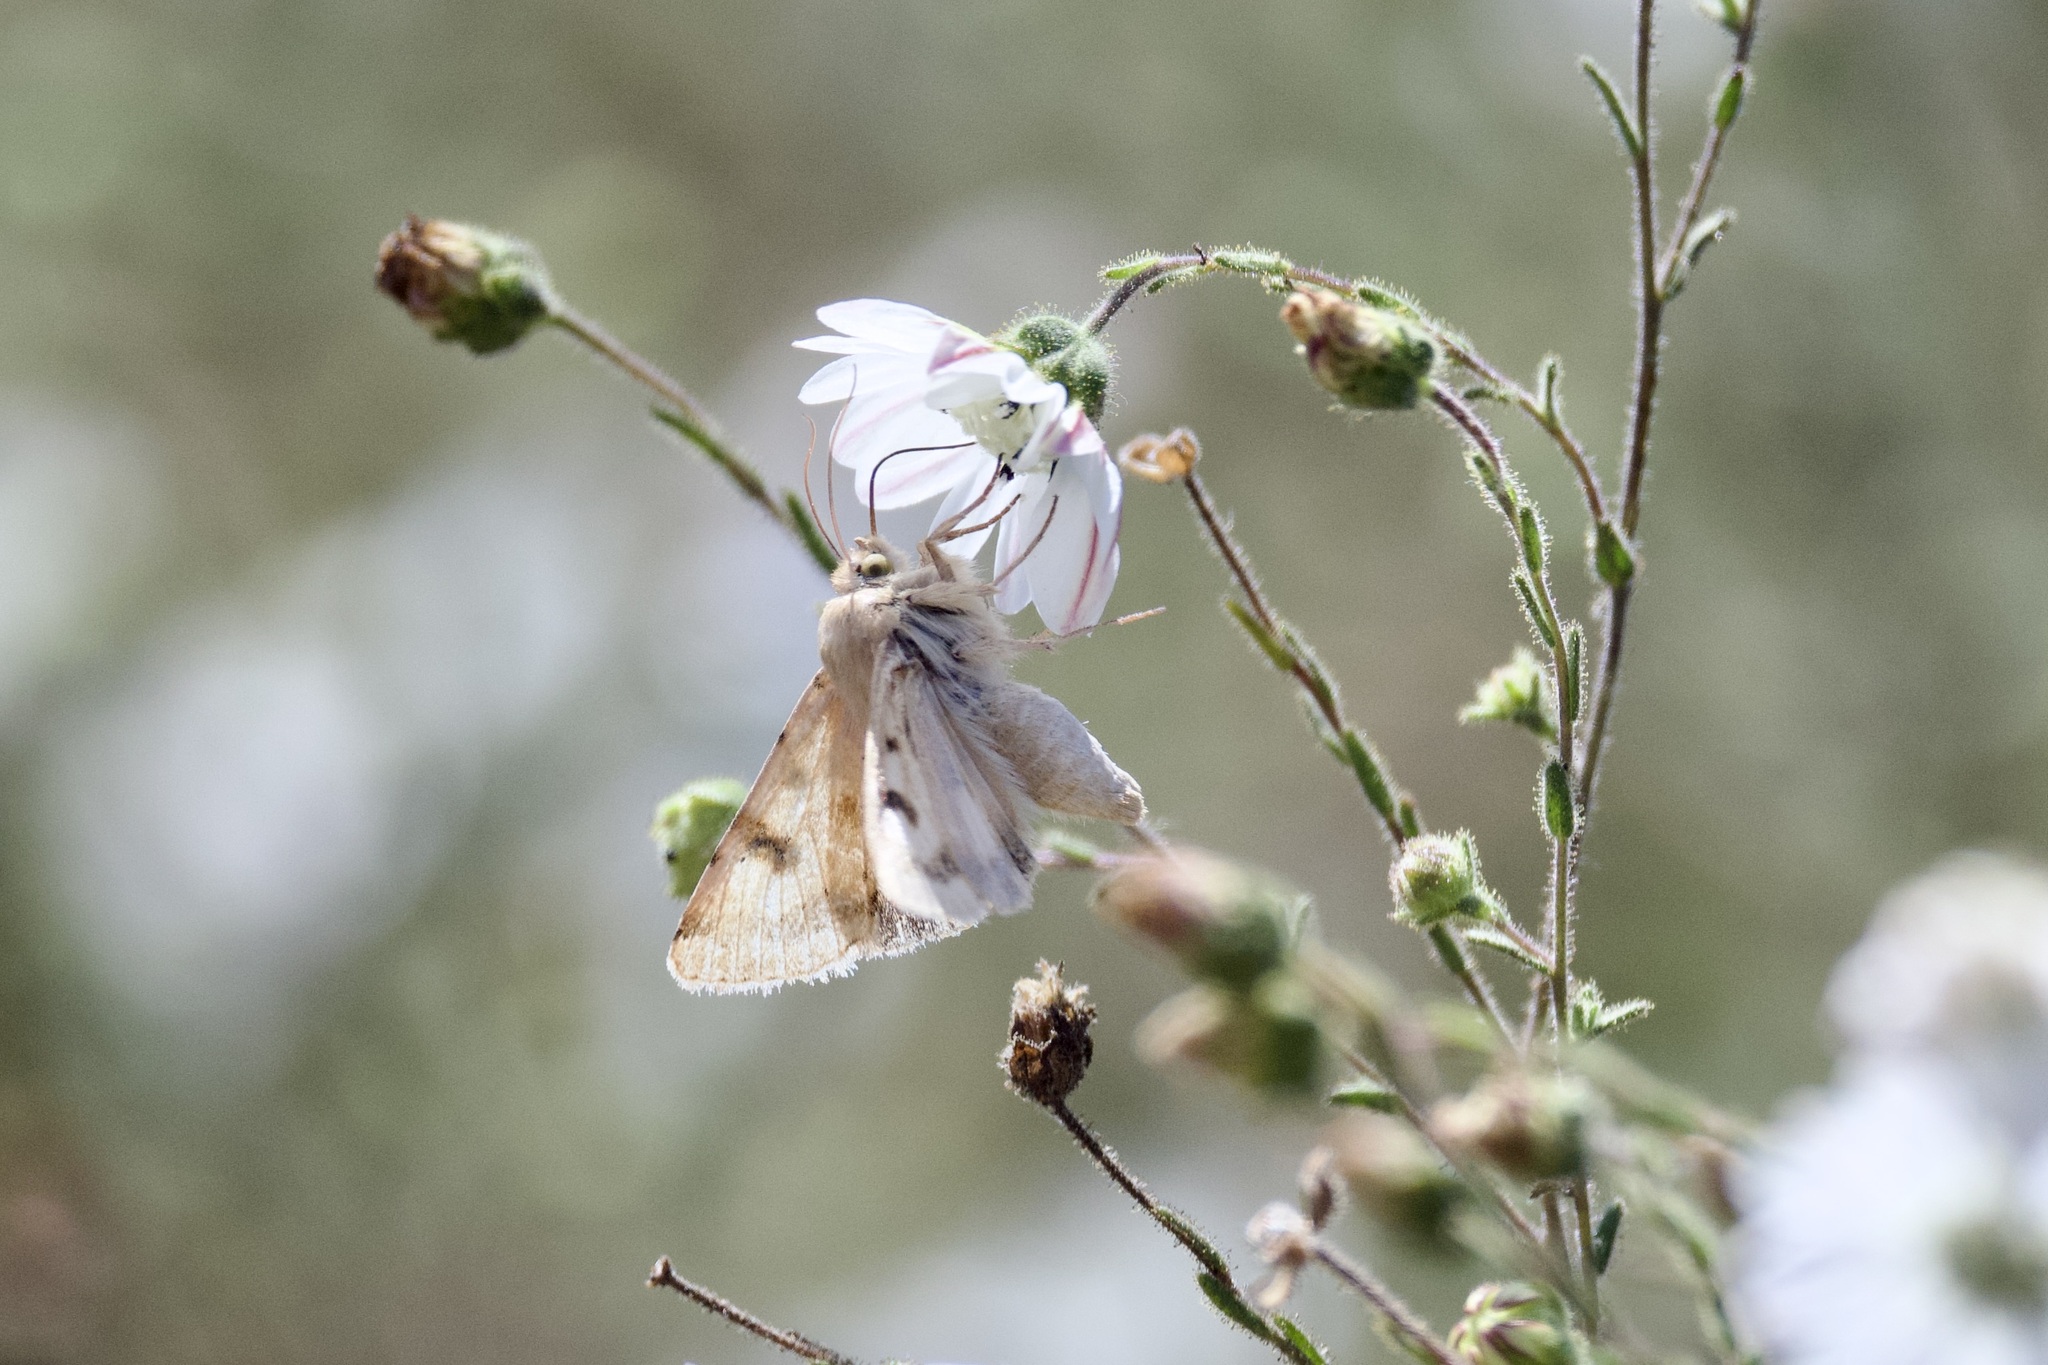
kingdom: Animalia
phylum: Arthropoda
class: Insecta
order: Lepidoptera
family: Noctuidae
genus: Heliothis
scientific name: Heliothis phloxiphaga
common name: Darker spotted straw moth
